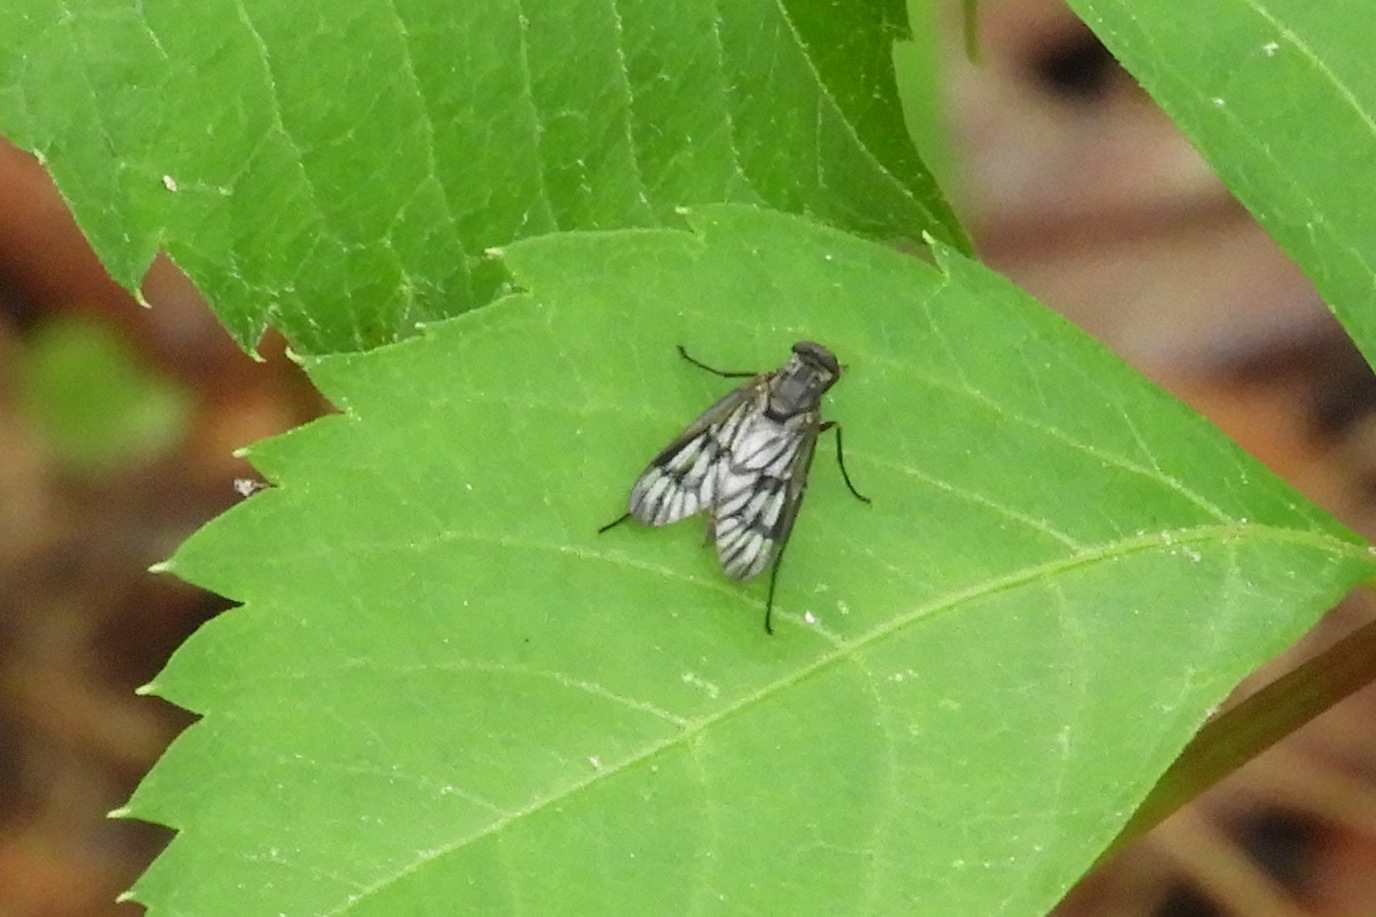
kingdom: Animalia
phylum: Arthropoda
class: Insecta
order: Diptera
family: Rhagionidae
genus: Rhagio
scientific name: Rhagio mystaceus
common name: Common snipe fly
